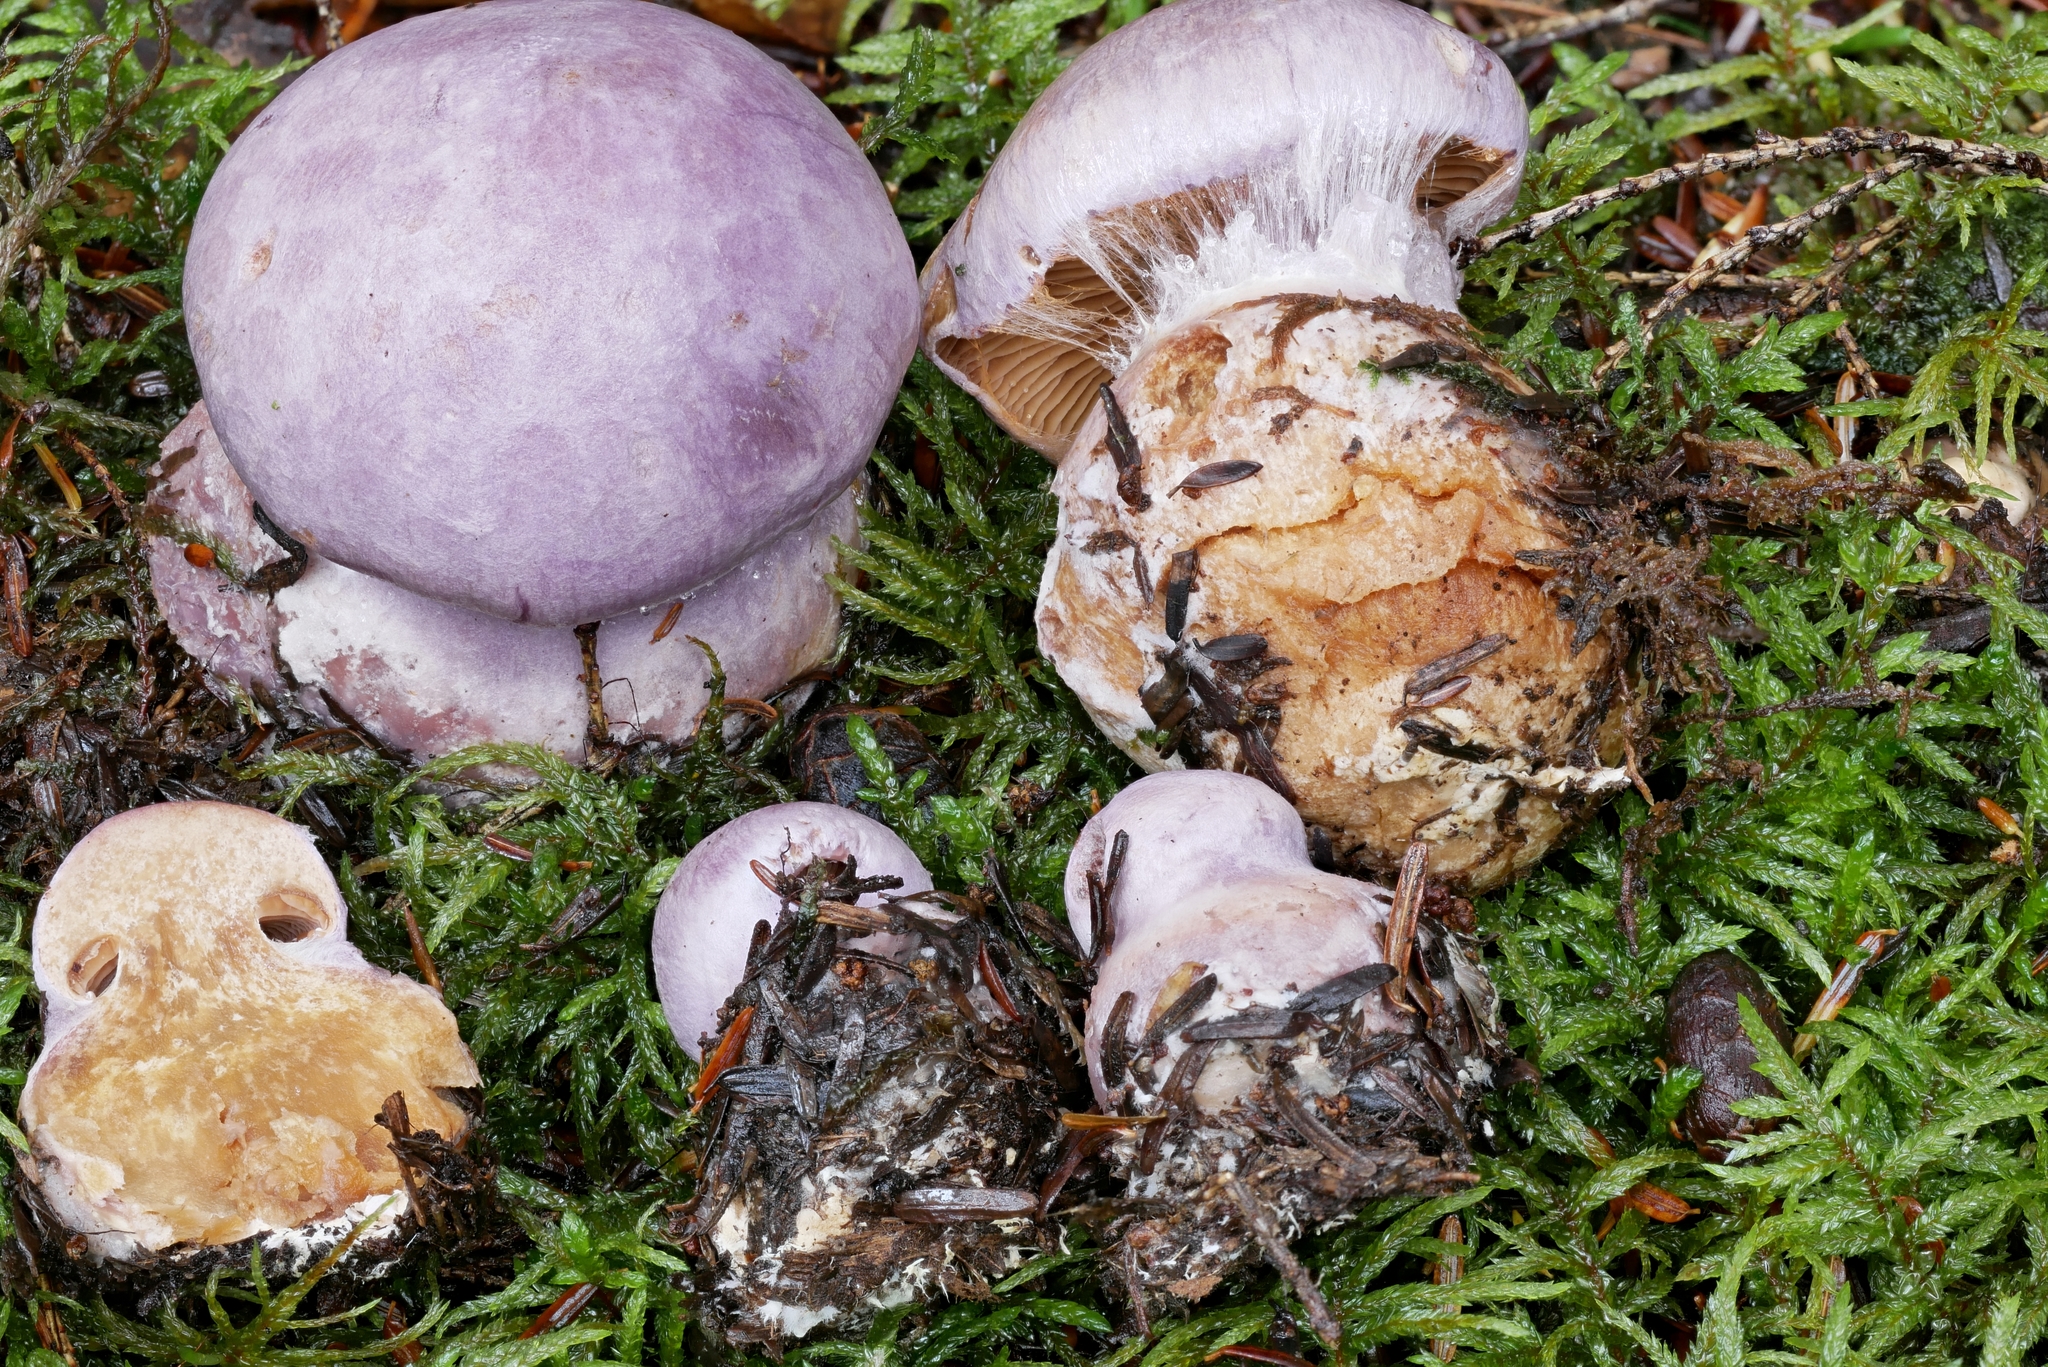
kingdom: Fungi
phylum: Basidiomycota
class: Agaricomycetes
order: Agaricales
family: Cortinariaceae
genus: Cortinarius
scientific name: Cortinarius traganus
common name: Gassy webcap
